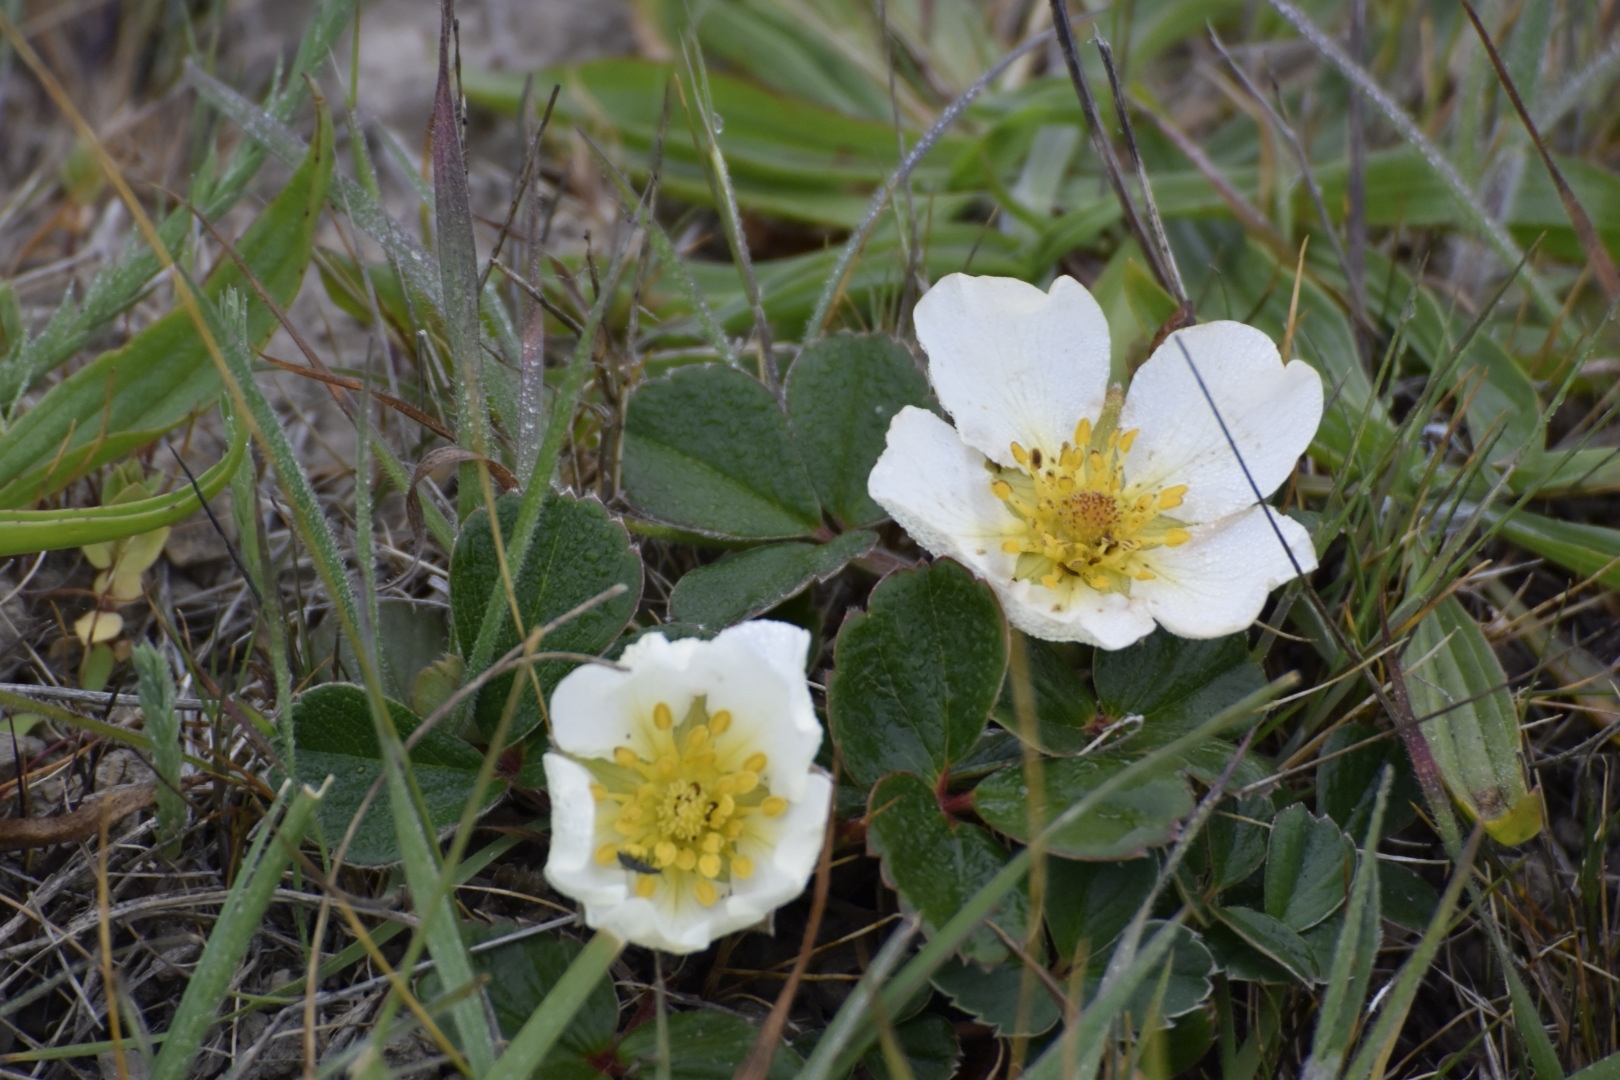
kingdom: Plantae
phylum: Tracheophyta
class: Magnoliopsida
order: Rosales
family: Rosaceae
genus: Fragaria
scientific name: Fragaria chiloensis
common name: Beach strawberry
